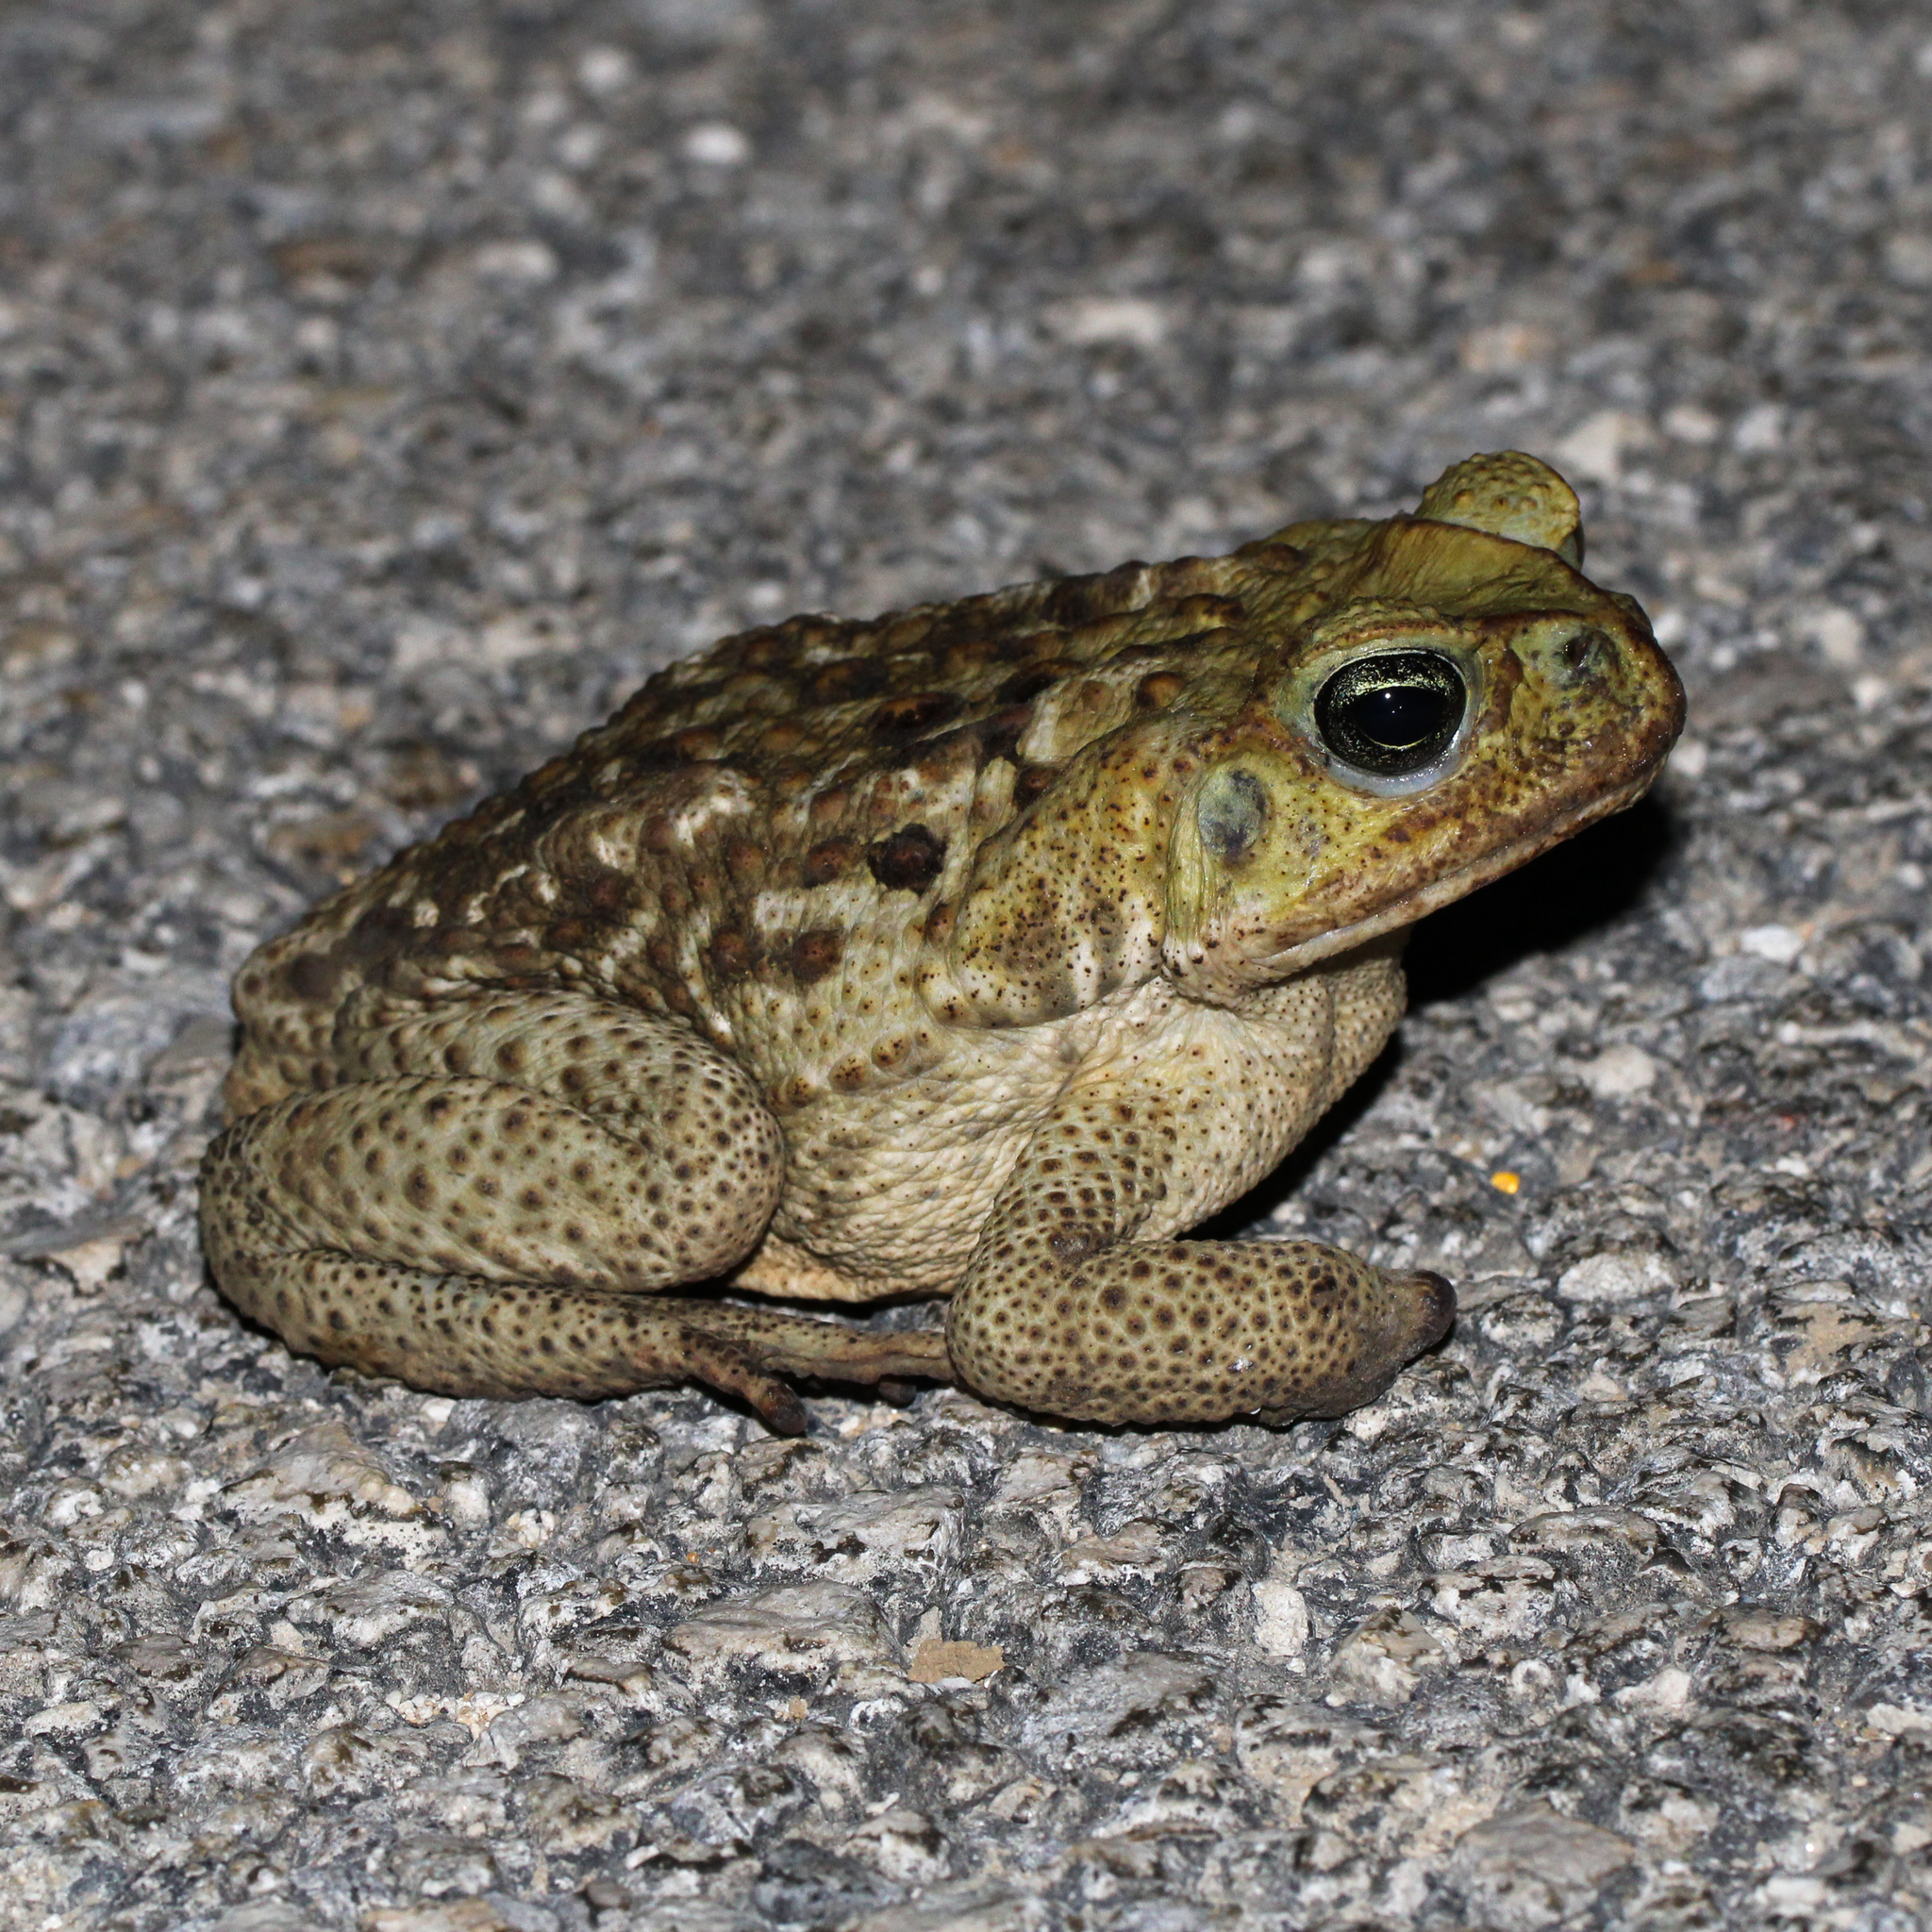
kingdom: Animalia
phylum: Chordata
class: Amphibia
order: Anura
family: Bufonidae
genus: Rhinella
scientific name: Rhinella marina
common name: Cane toad
